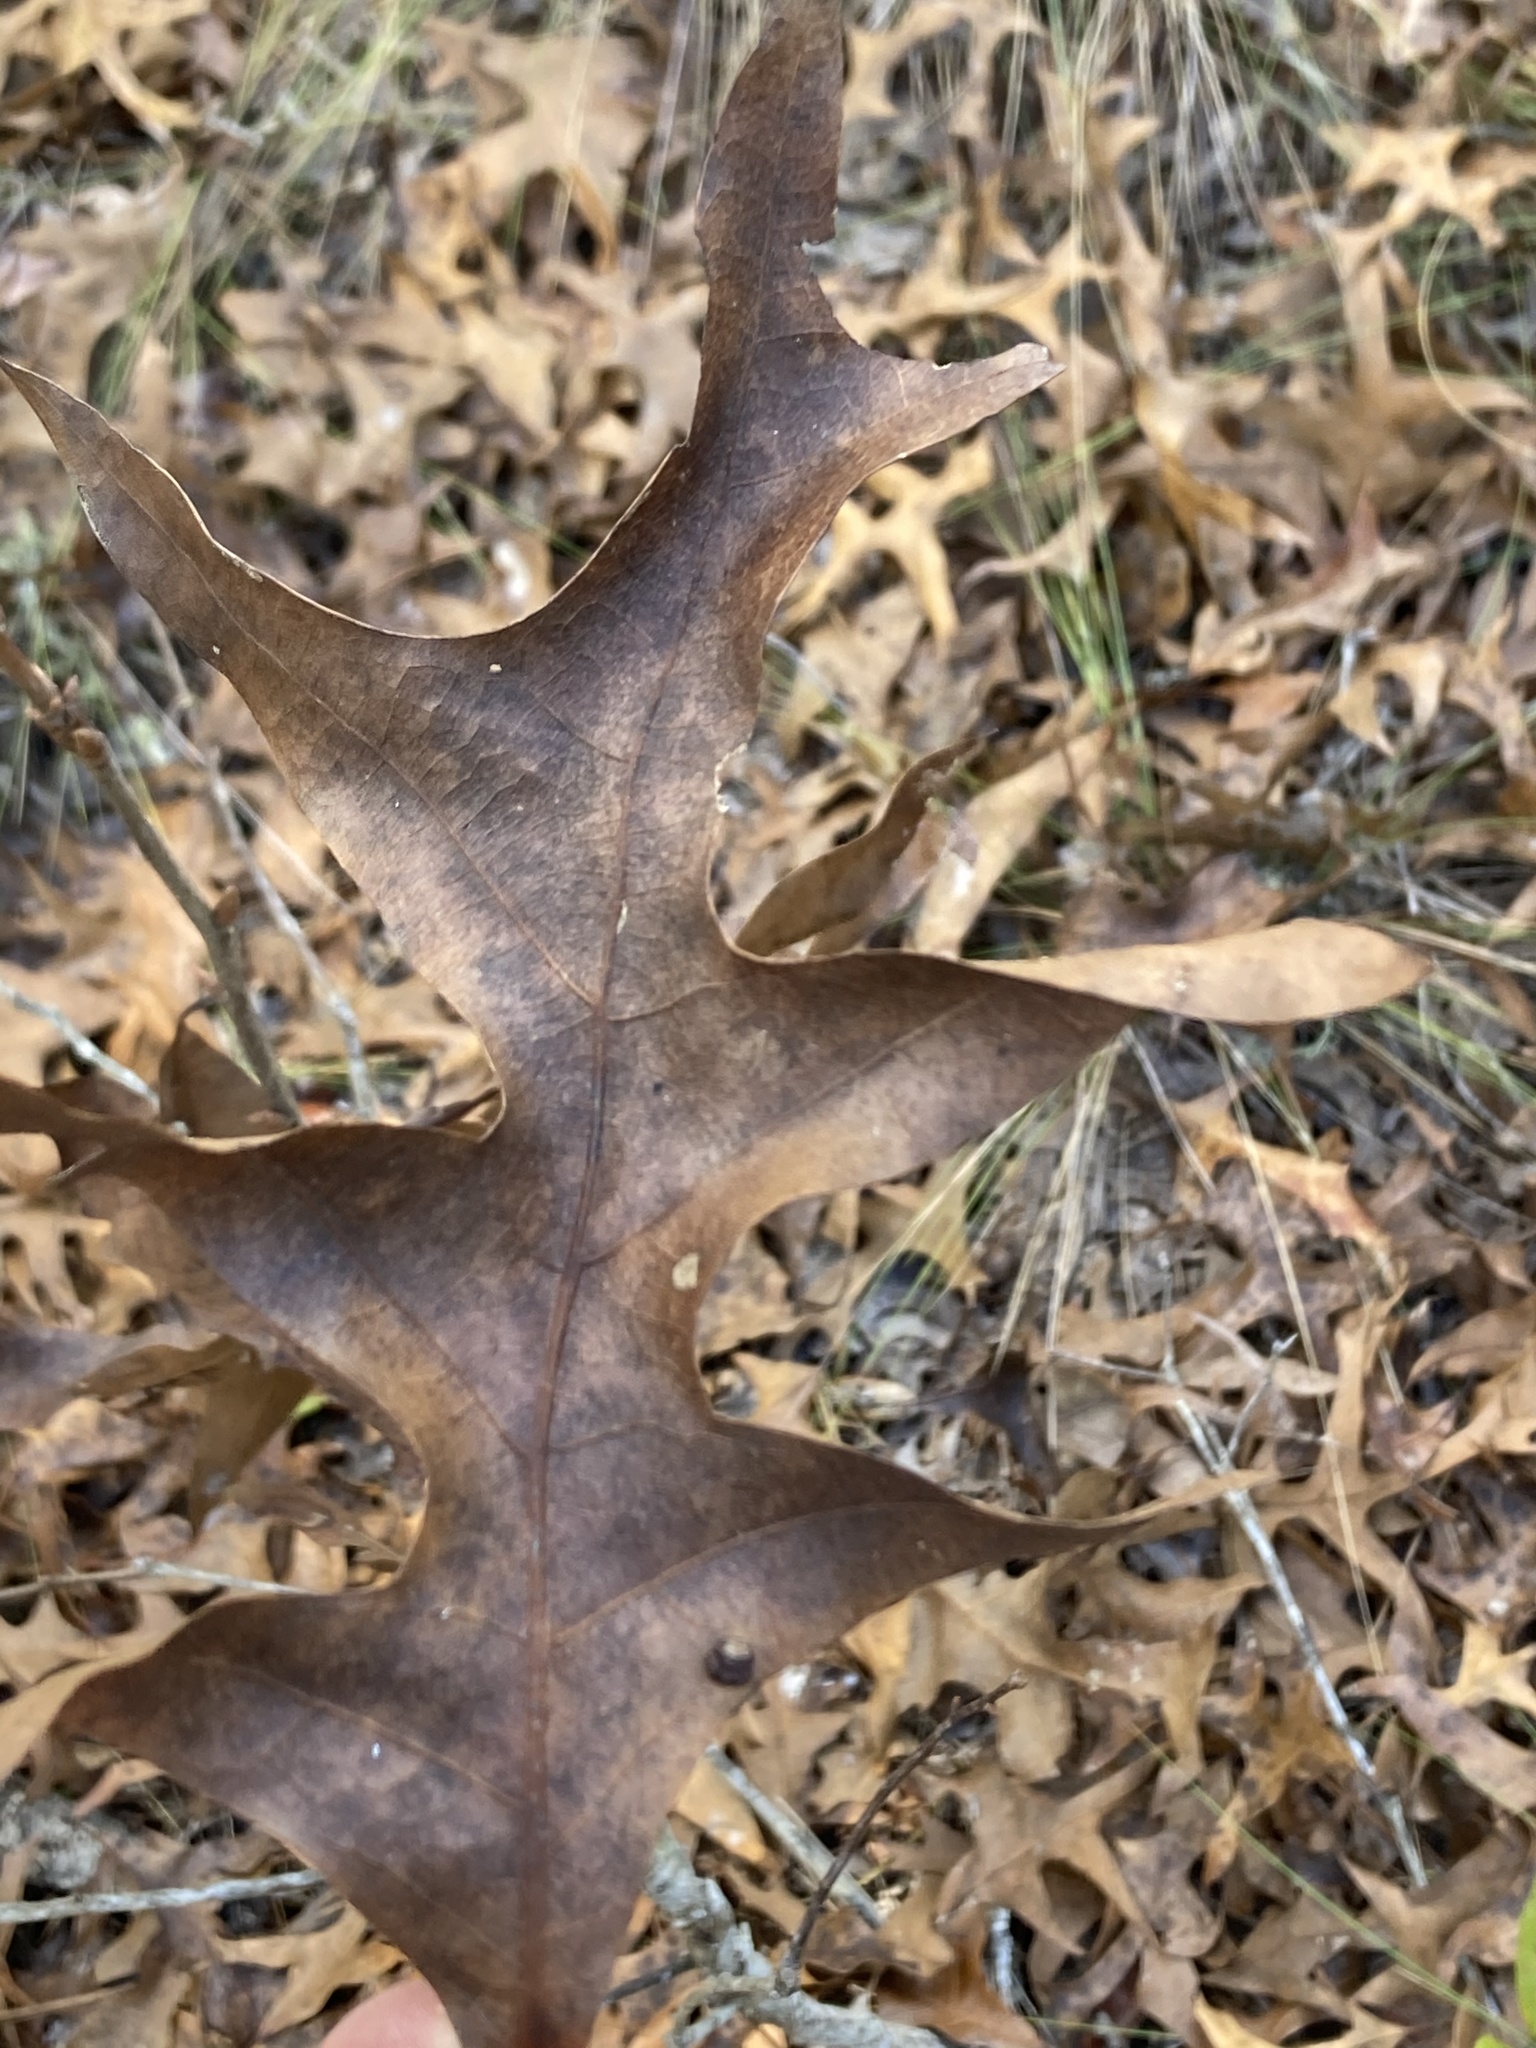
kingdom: Plantae
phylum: Tracheophyta
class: Magnoliopsida
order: Fagales
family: Fagaceae
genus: Quercus
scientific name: Quercus laevis
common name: Turkey oak
